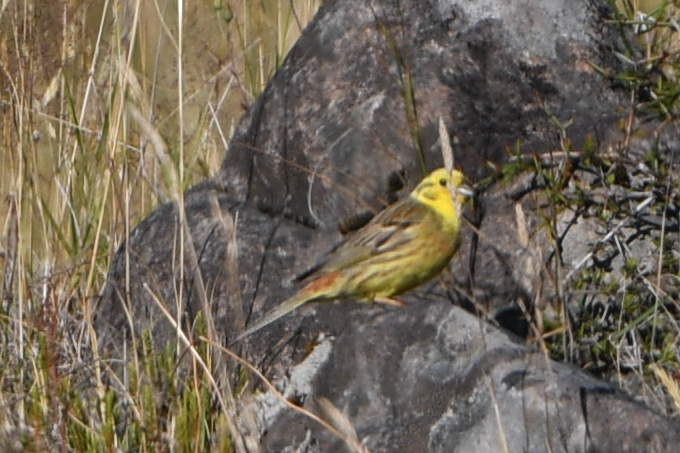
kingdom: Animalia
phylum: Chordata
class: Aves
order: Passeriformes
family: Emberizidae
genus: Emberiza
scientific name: Emberiza citrinella
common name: Yellowhammer
